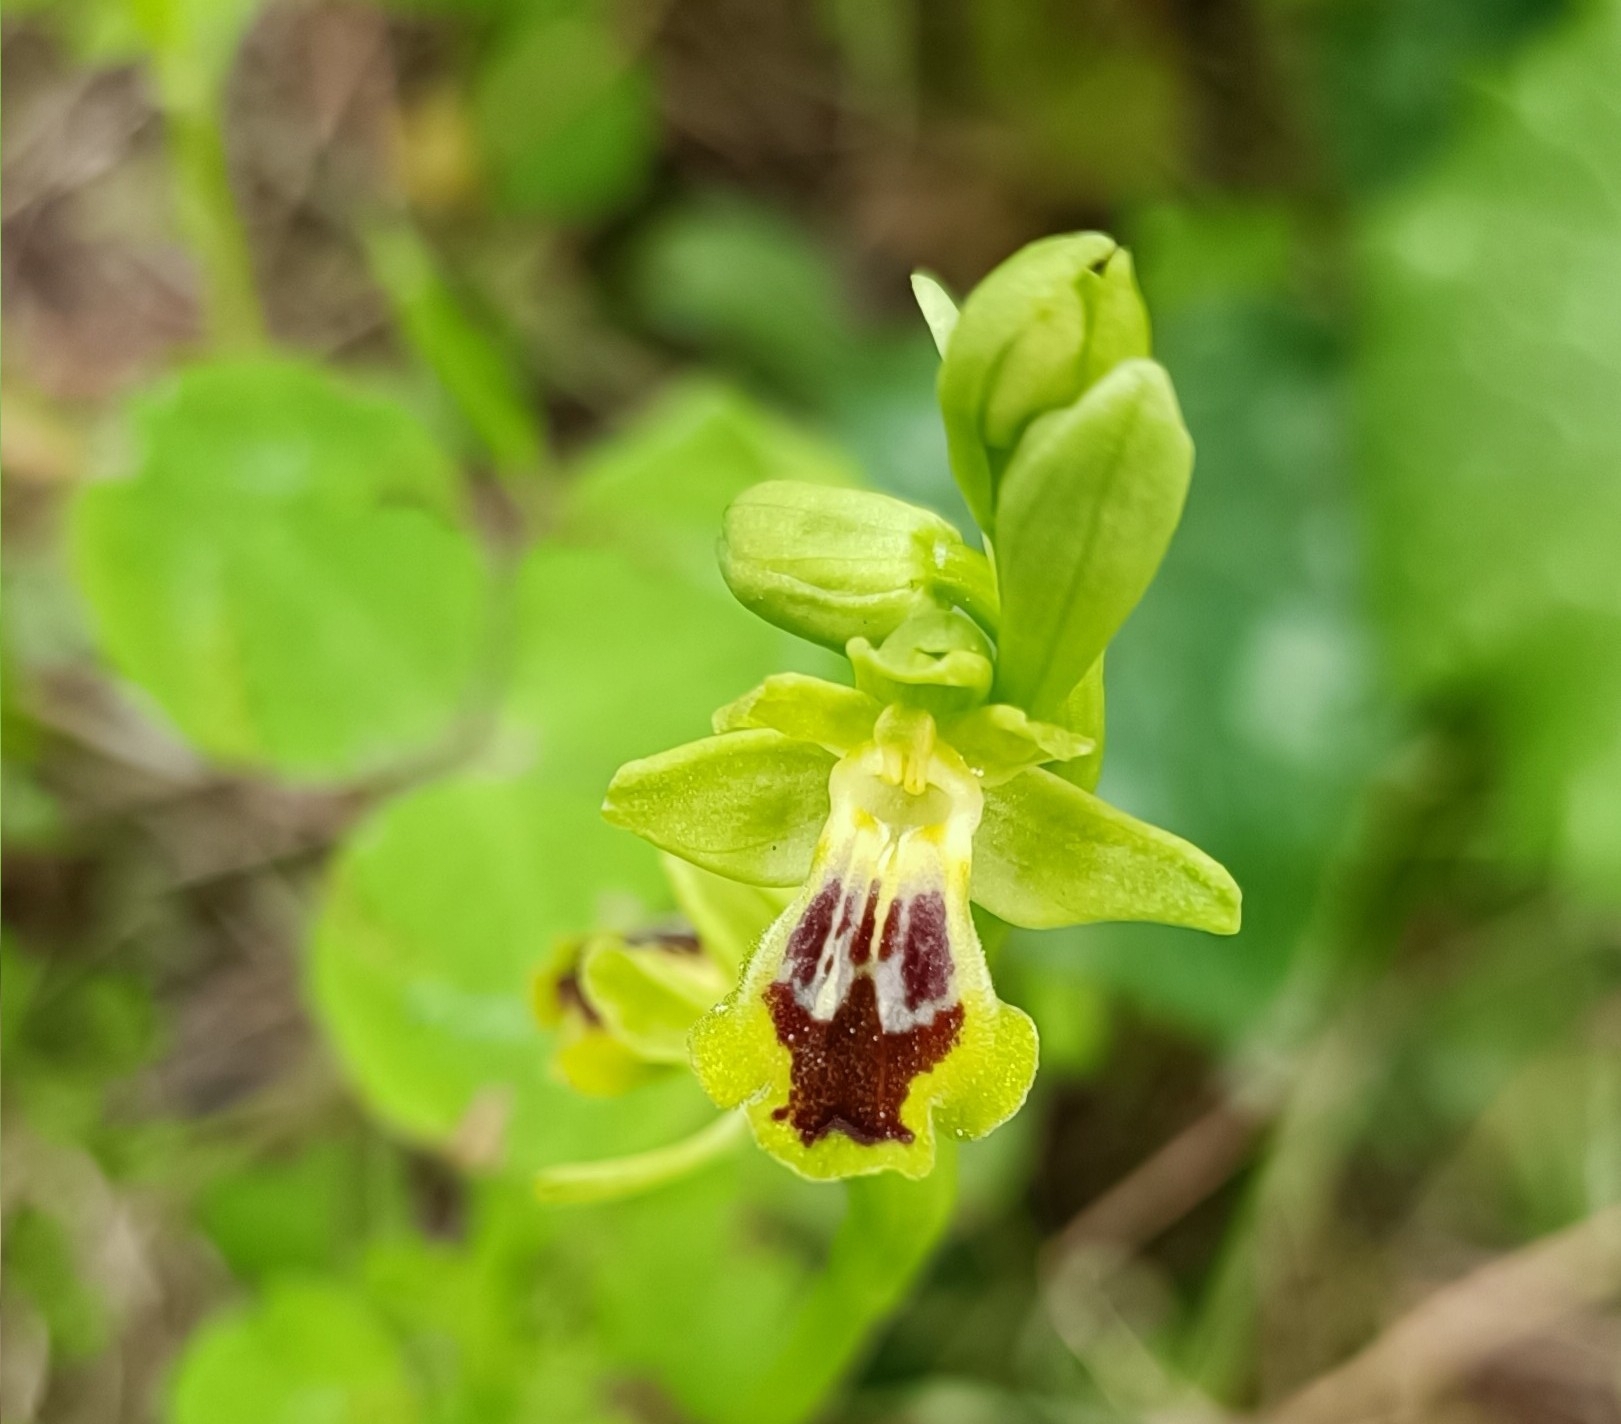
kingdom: Plantae
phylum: Tracheophyta
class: Liliopsida
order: Asparagales
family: Orchidaceae
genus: Ophrys
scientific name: Ophrys lutea
